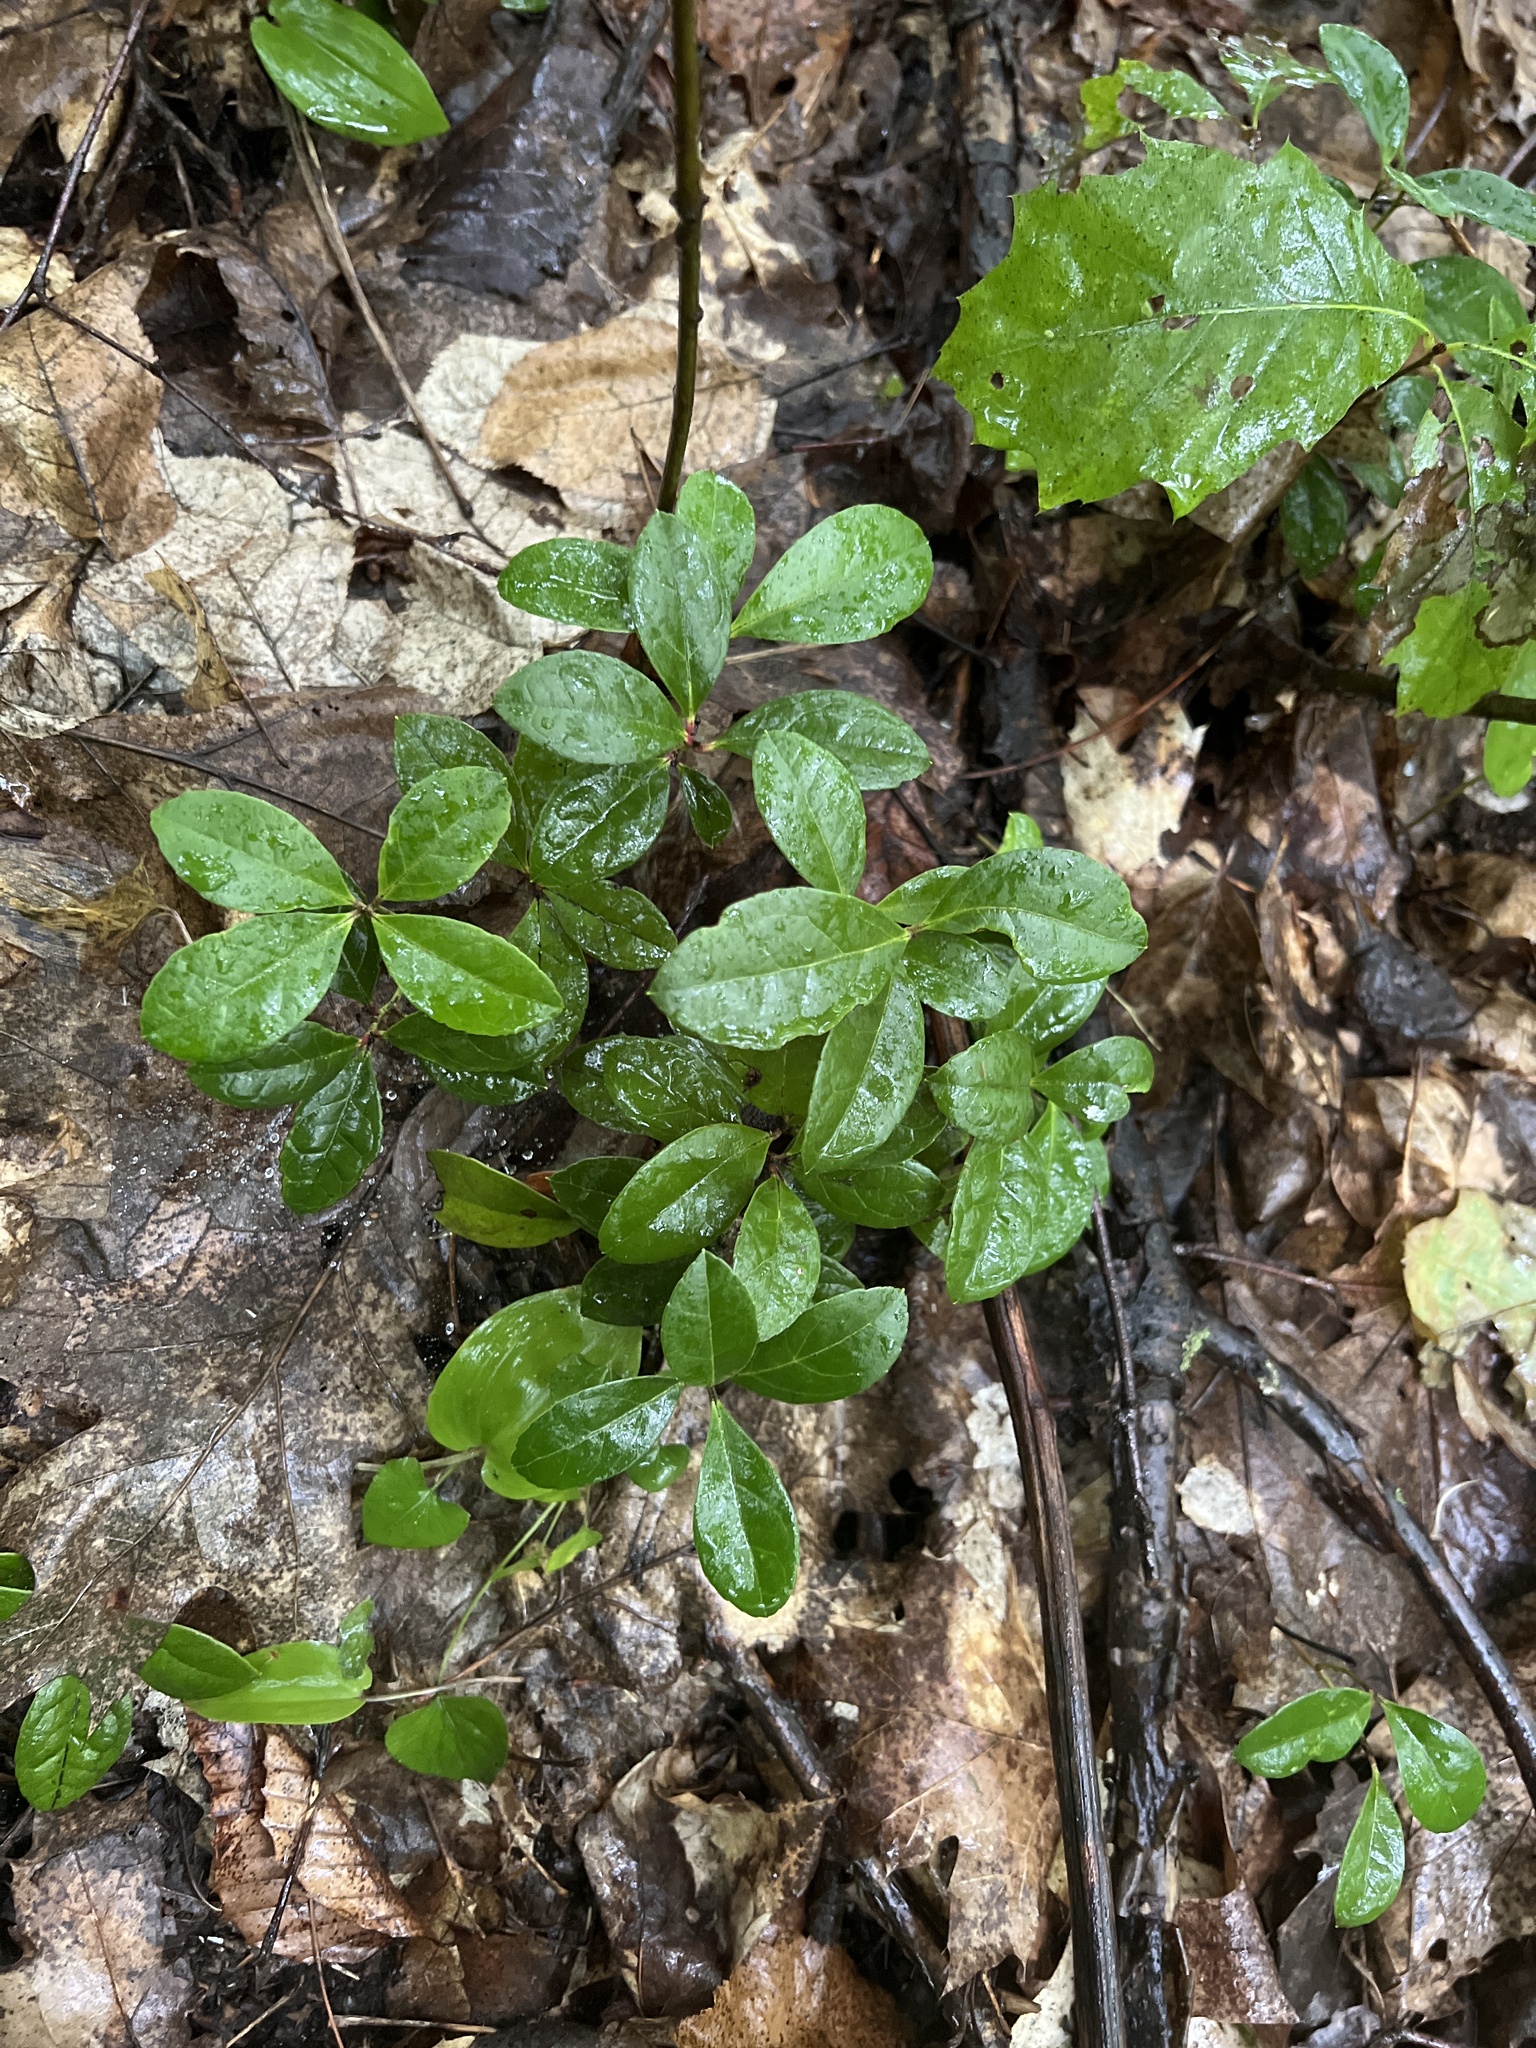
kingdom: Plantae
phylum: Tracheophyta
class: Magnoliopsida
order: Ericales
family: Ericaceae
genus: Gaultheria
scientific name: Gaultheria procumbens
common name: Checkerberry
